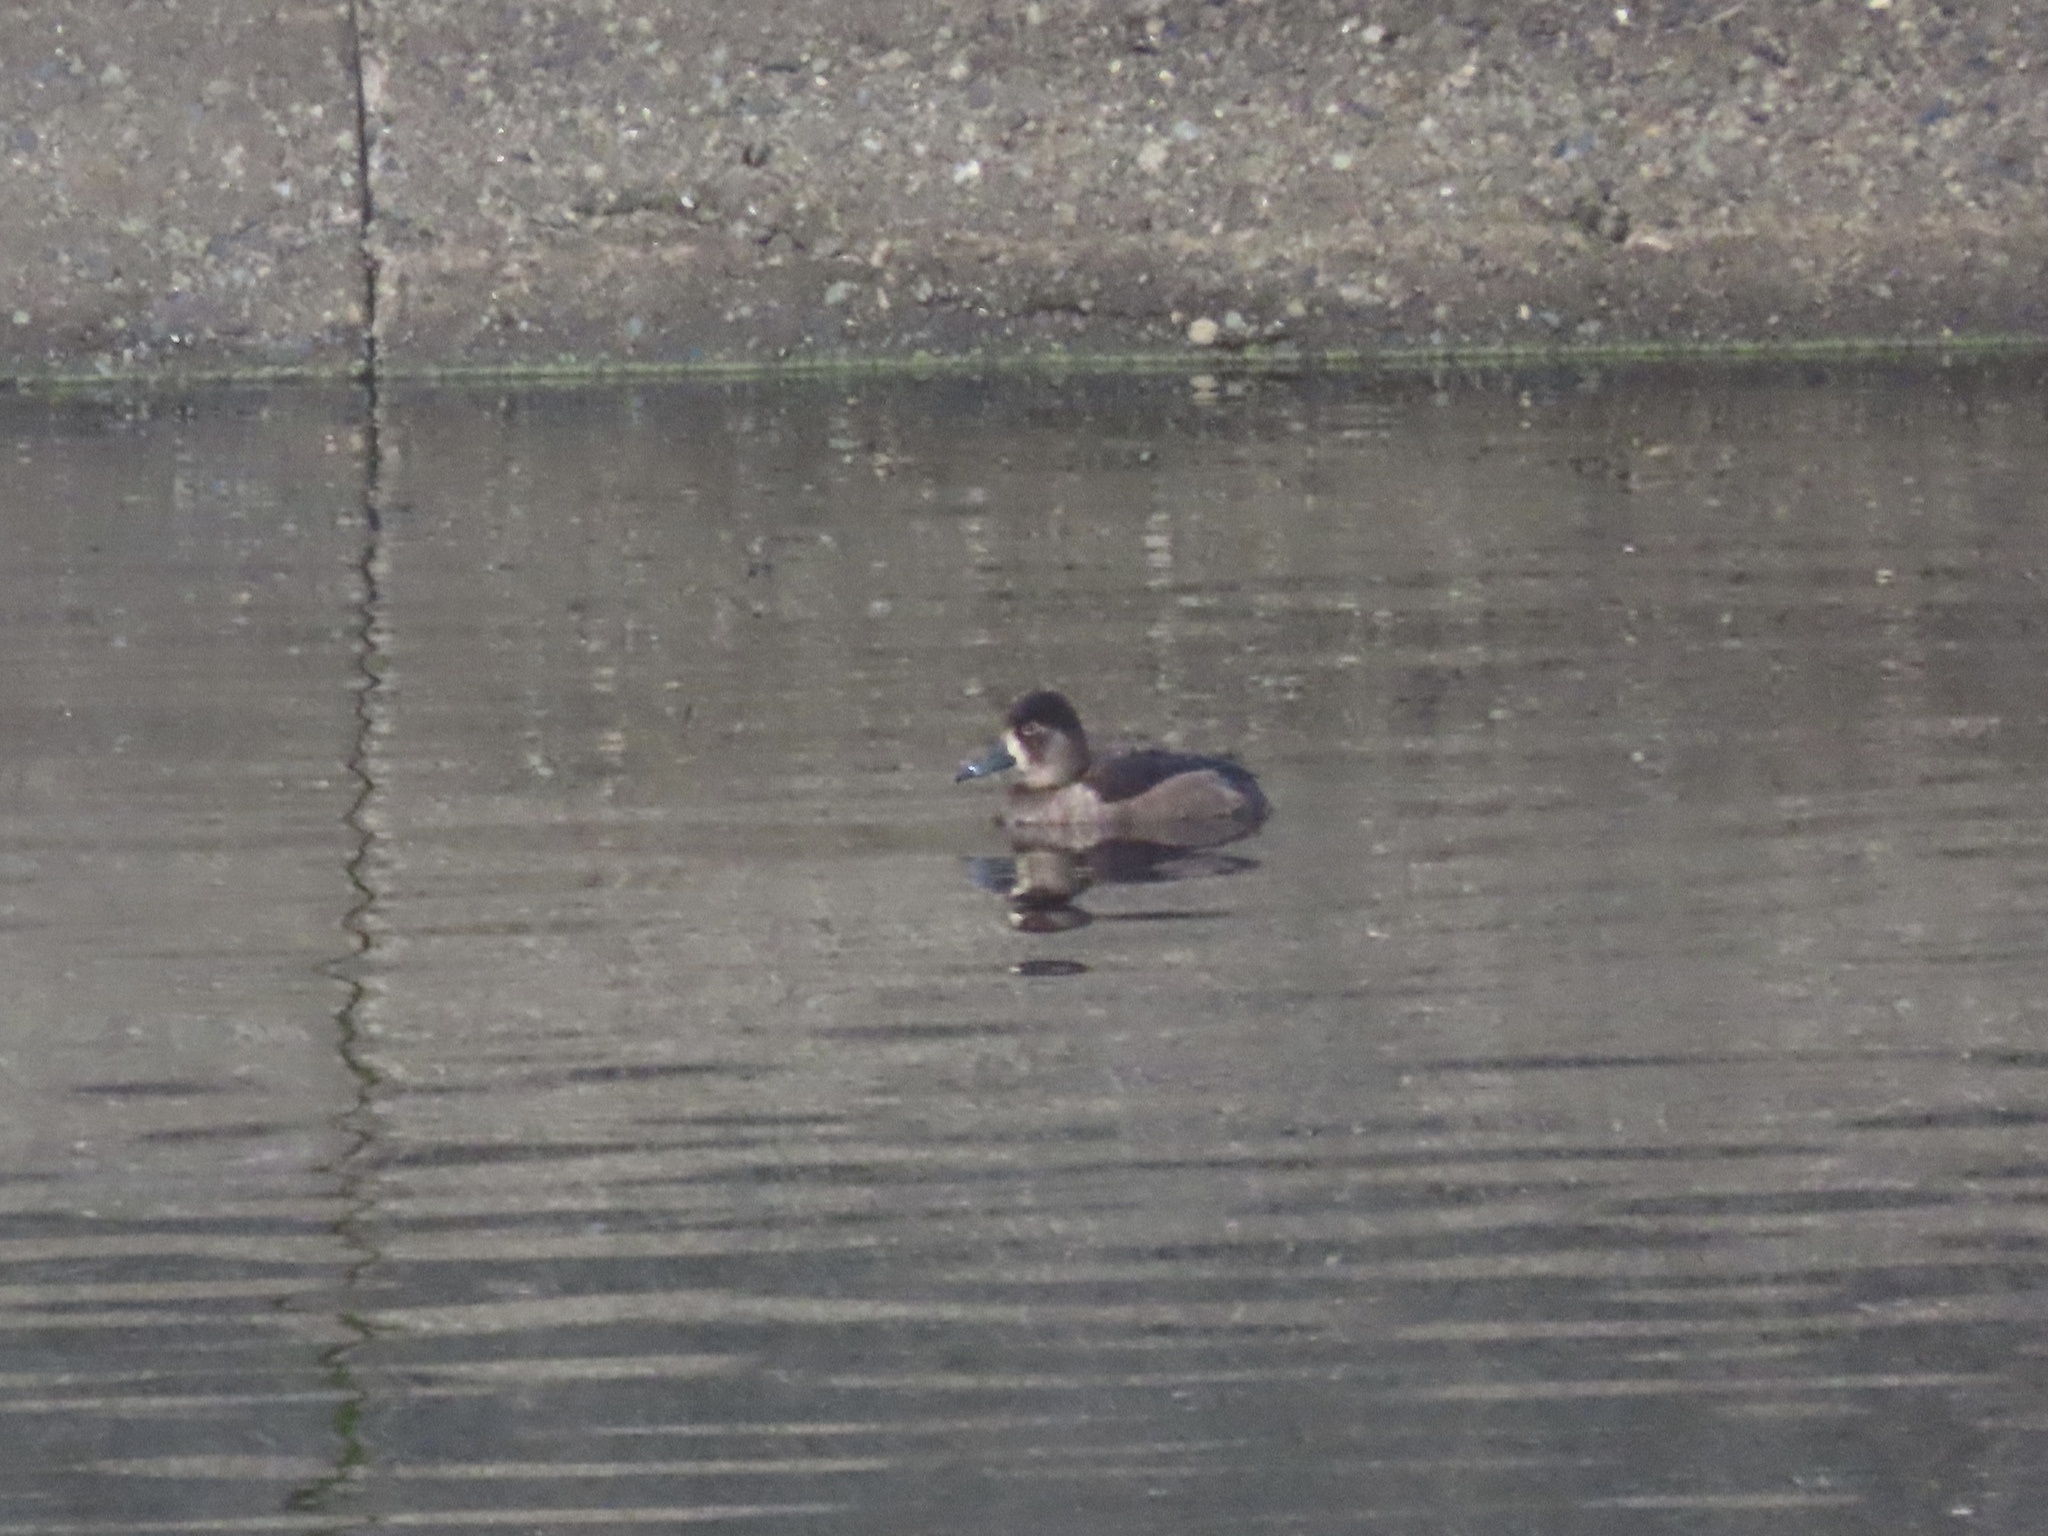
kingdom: Animalia
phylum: Chordata
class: Aves
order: Anseriformes
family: Anatidae
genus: Aythya
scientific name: Aythya collaris
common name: Ring-necked duck
